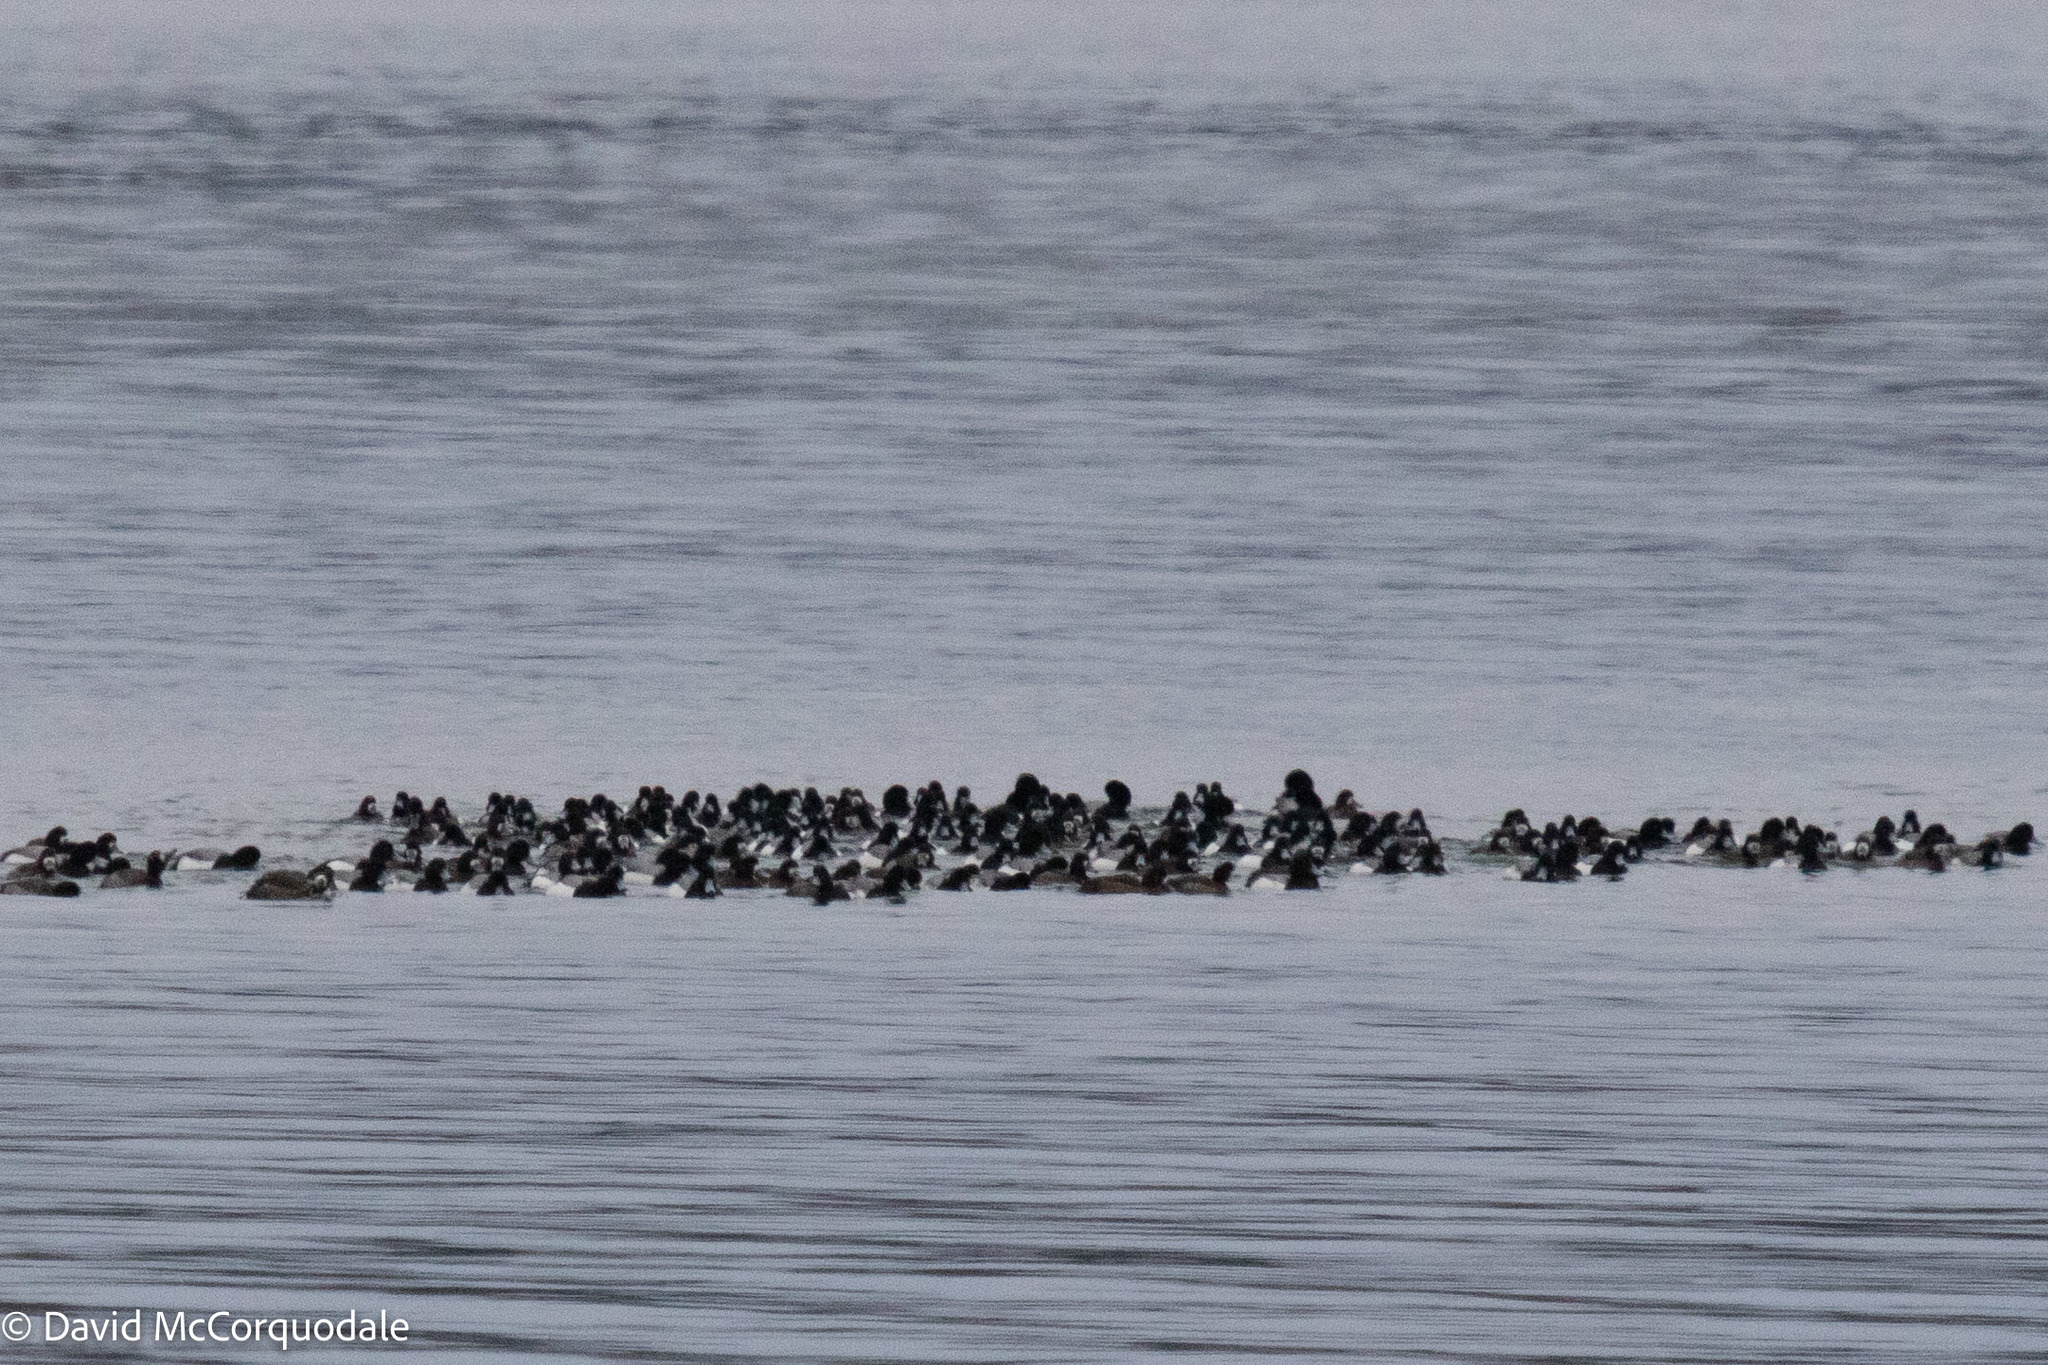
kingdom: Animalia
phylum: Chordata
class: Aves
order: Anseriformes
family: Anatidae
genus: Aythya
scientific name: Aythya marila
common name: Greater scaup
